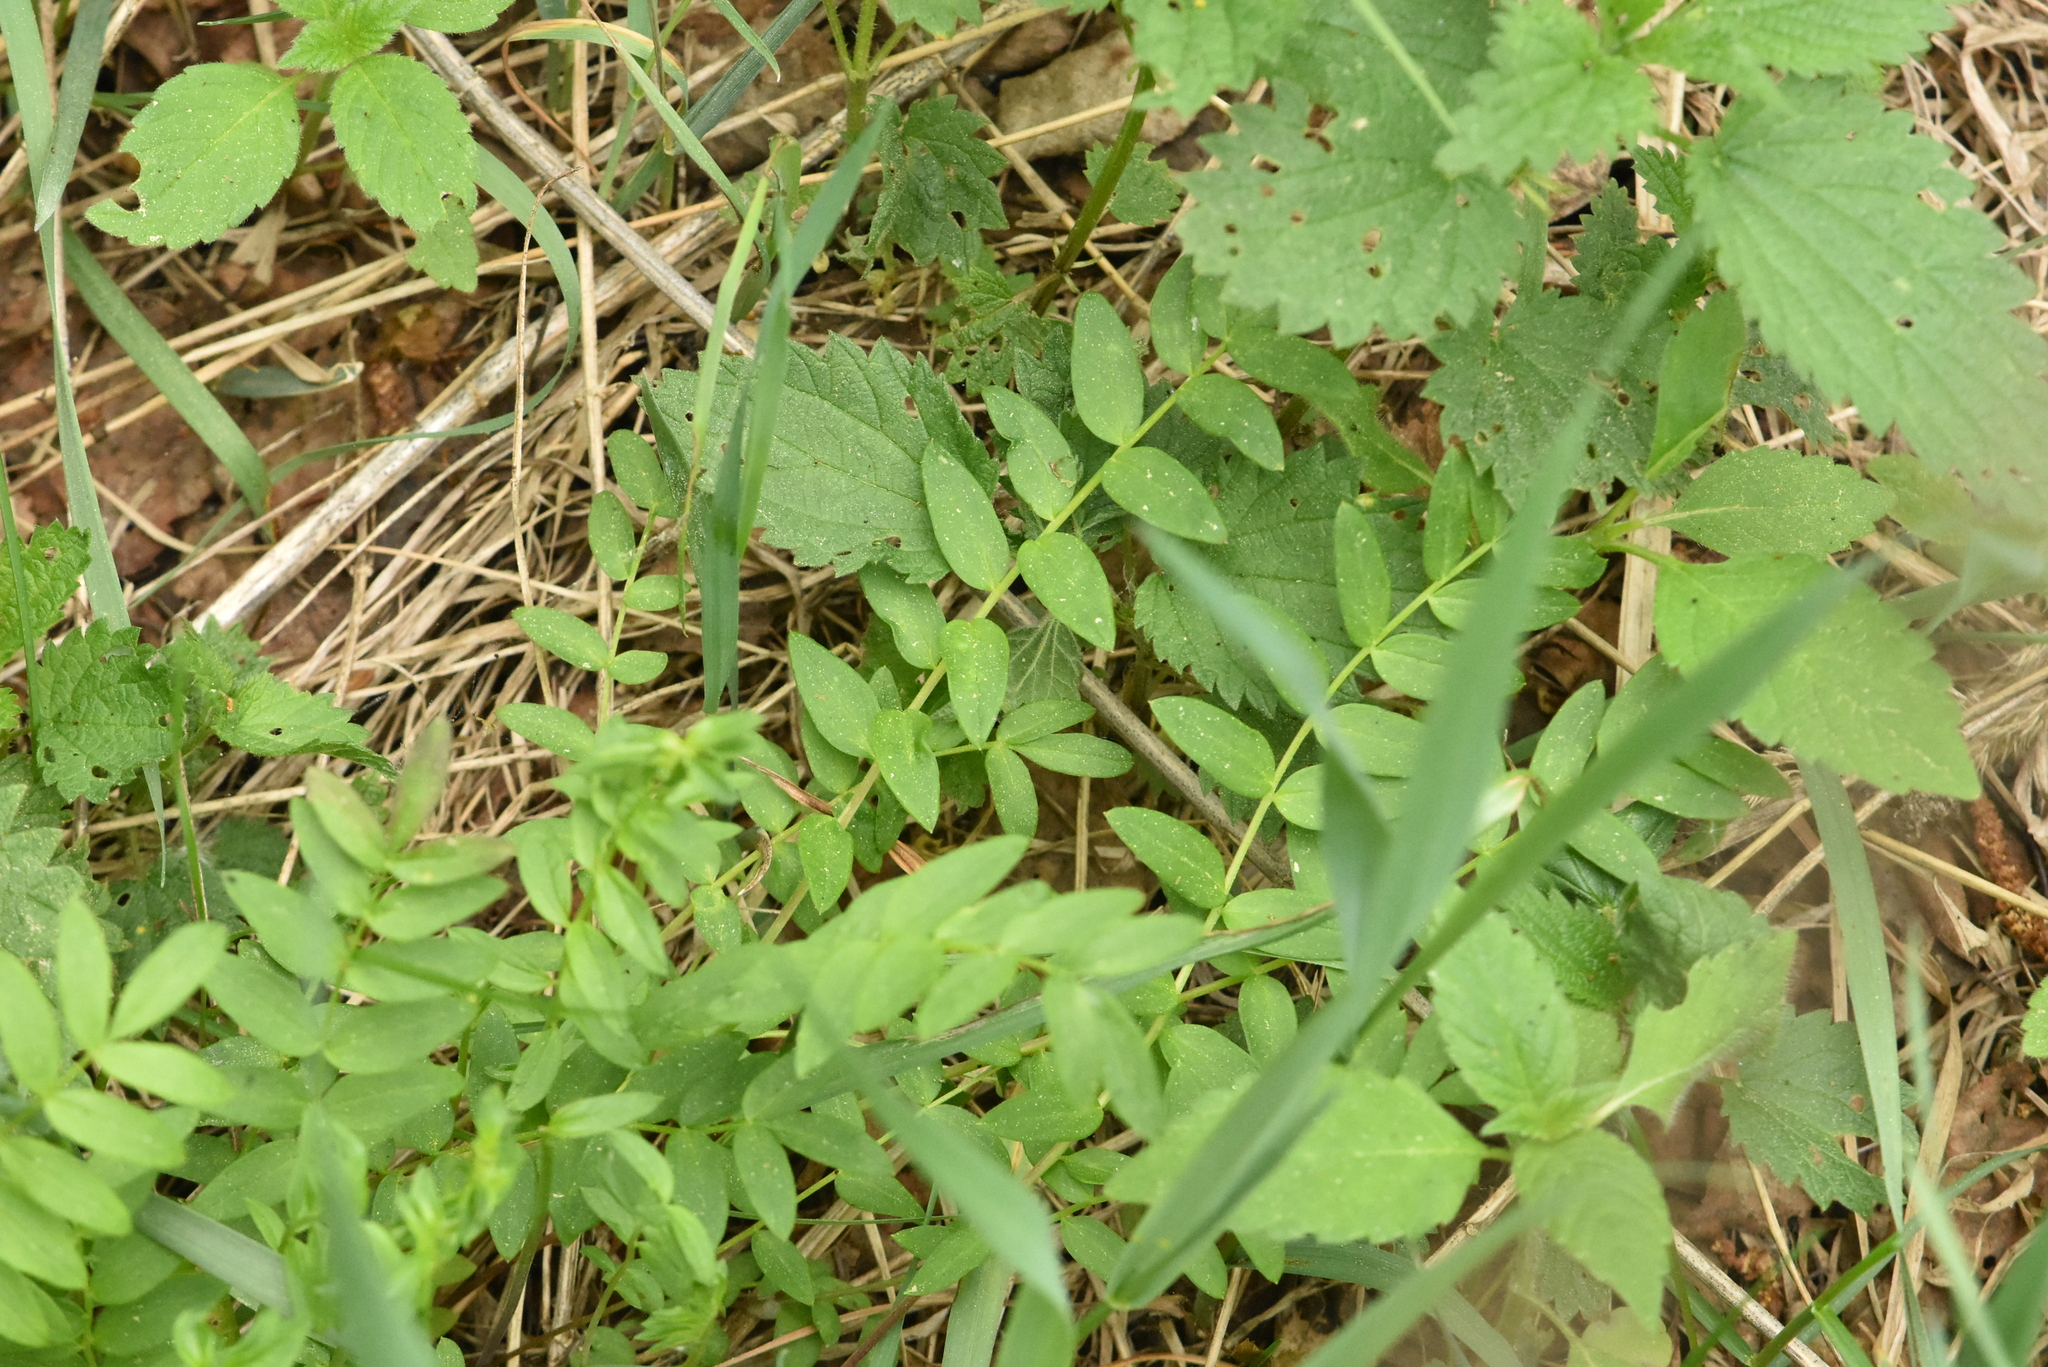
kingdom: Plantae
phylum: Tracheophyta
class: Magnoliopsida
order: Ericales
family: Polemoniaceae
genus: Polemonium
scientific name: Polemonium caeruleum
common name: Jacob's-ladder
